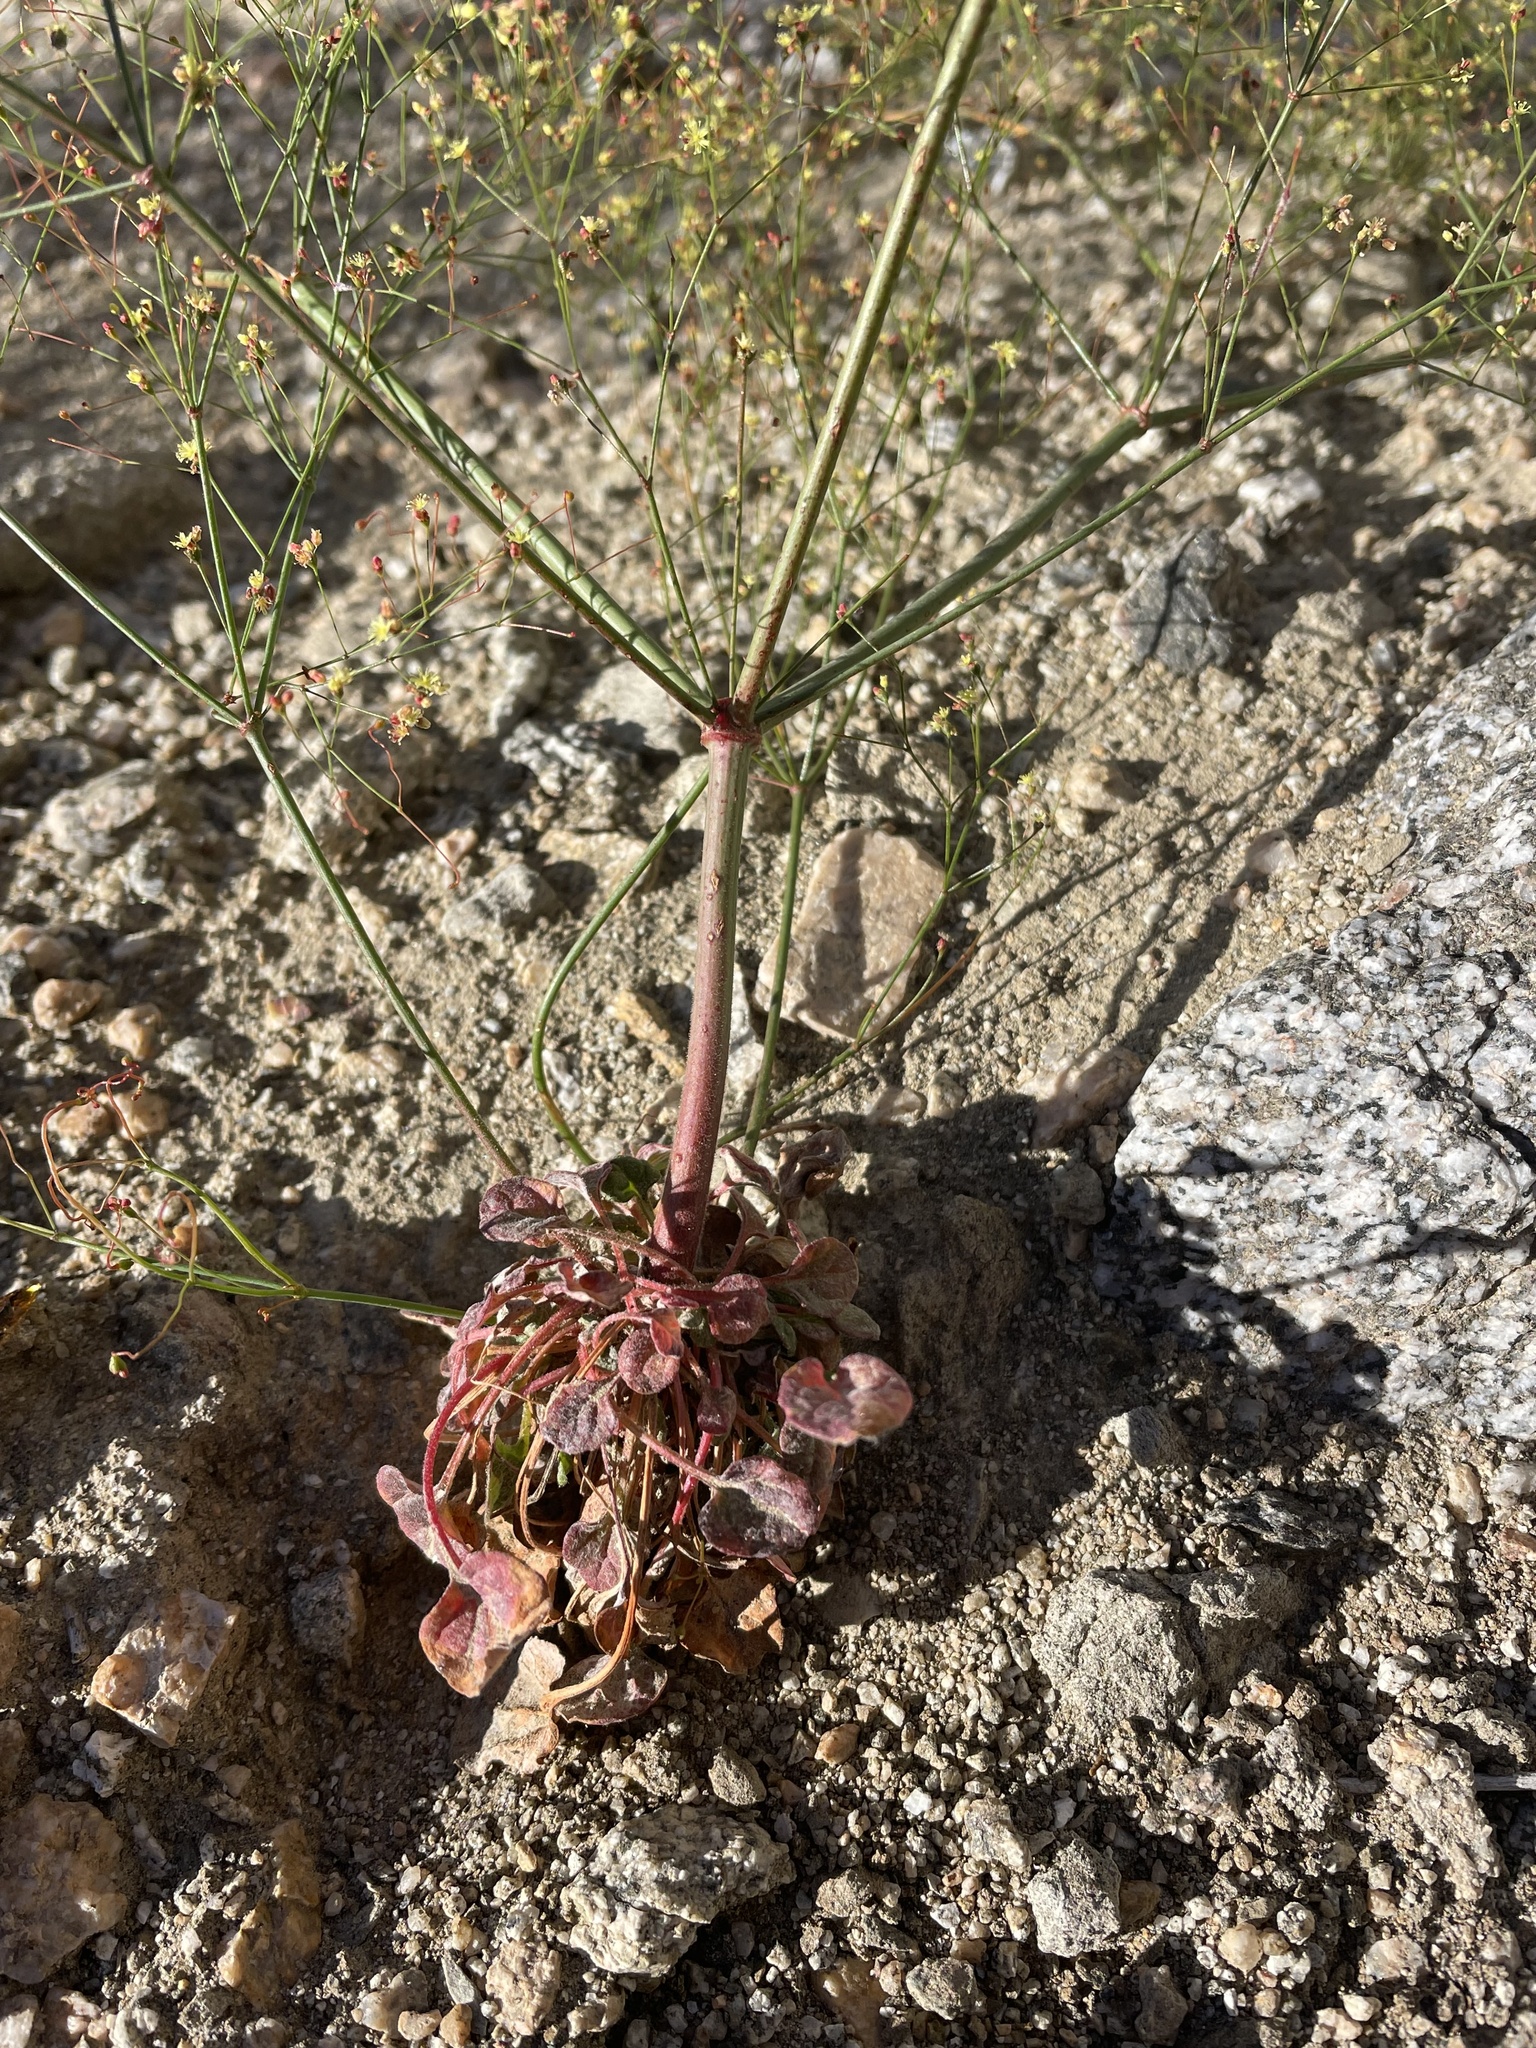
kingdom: Plantae
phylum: Tracheophyta
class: Magnoliopsida
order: Caryophyllales
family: Polygonaceae
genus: Eriogonum
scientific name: Eriogonum thomasii
